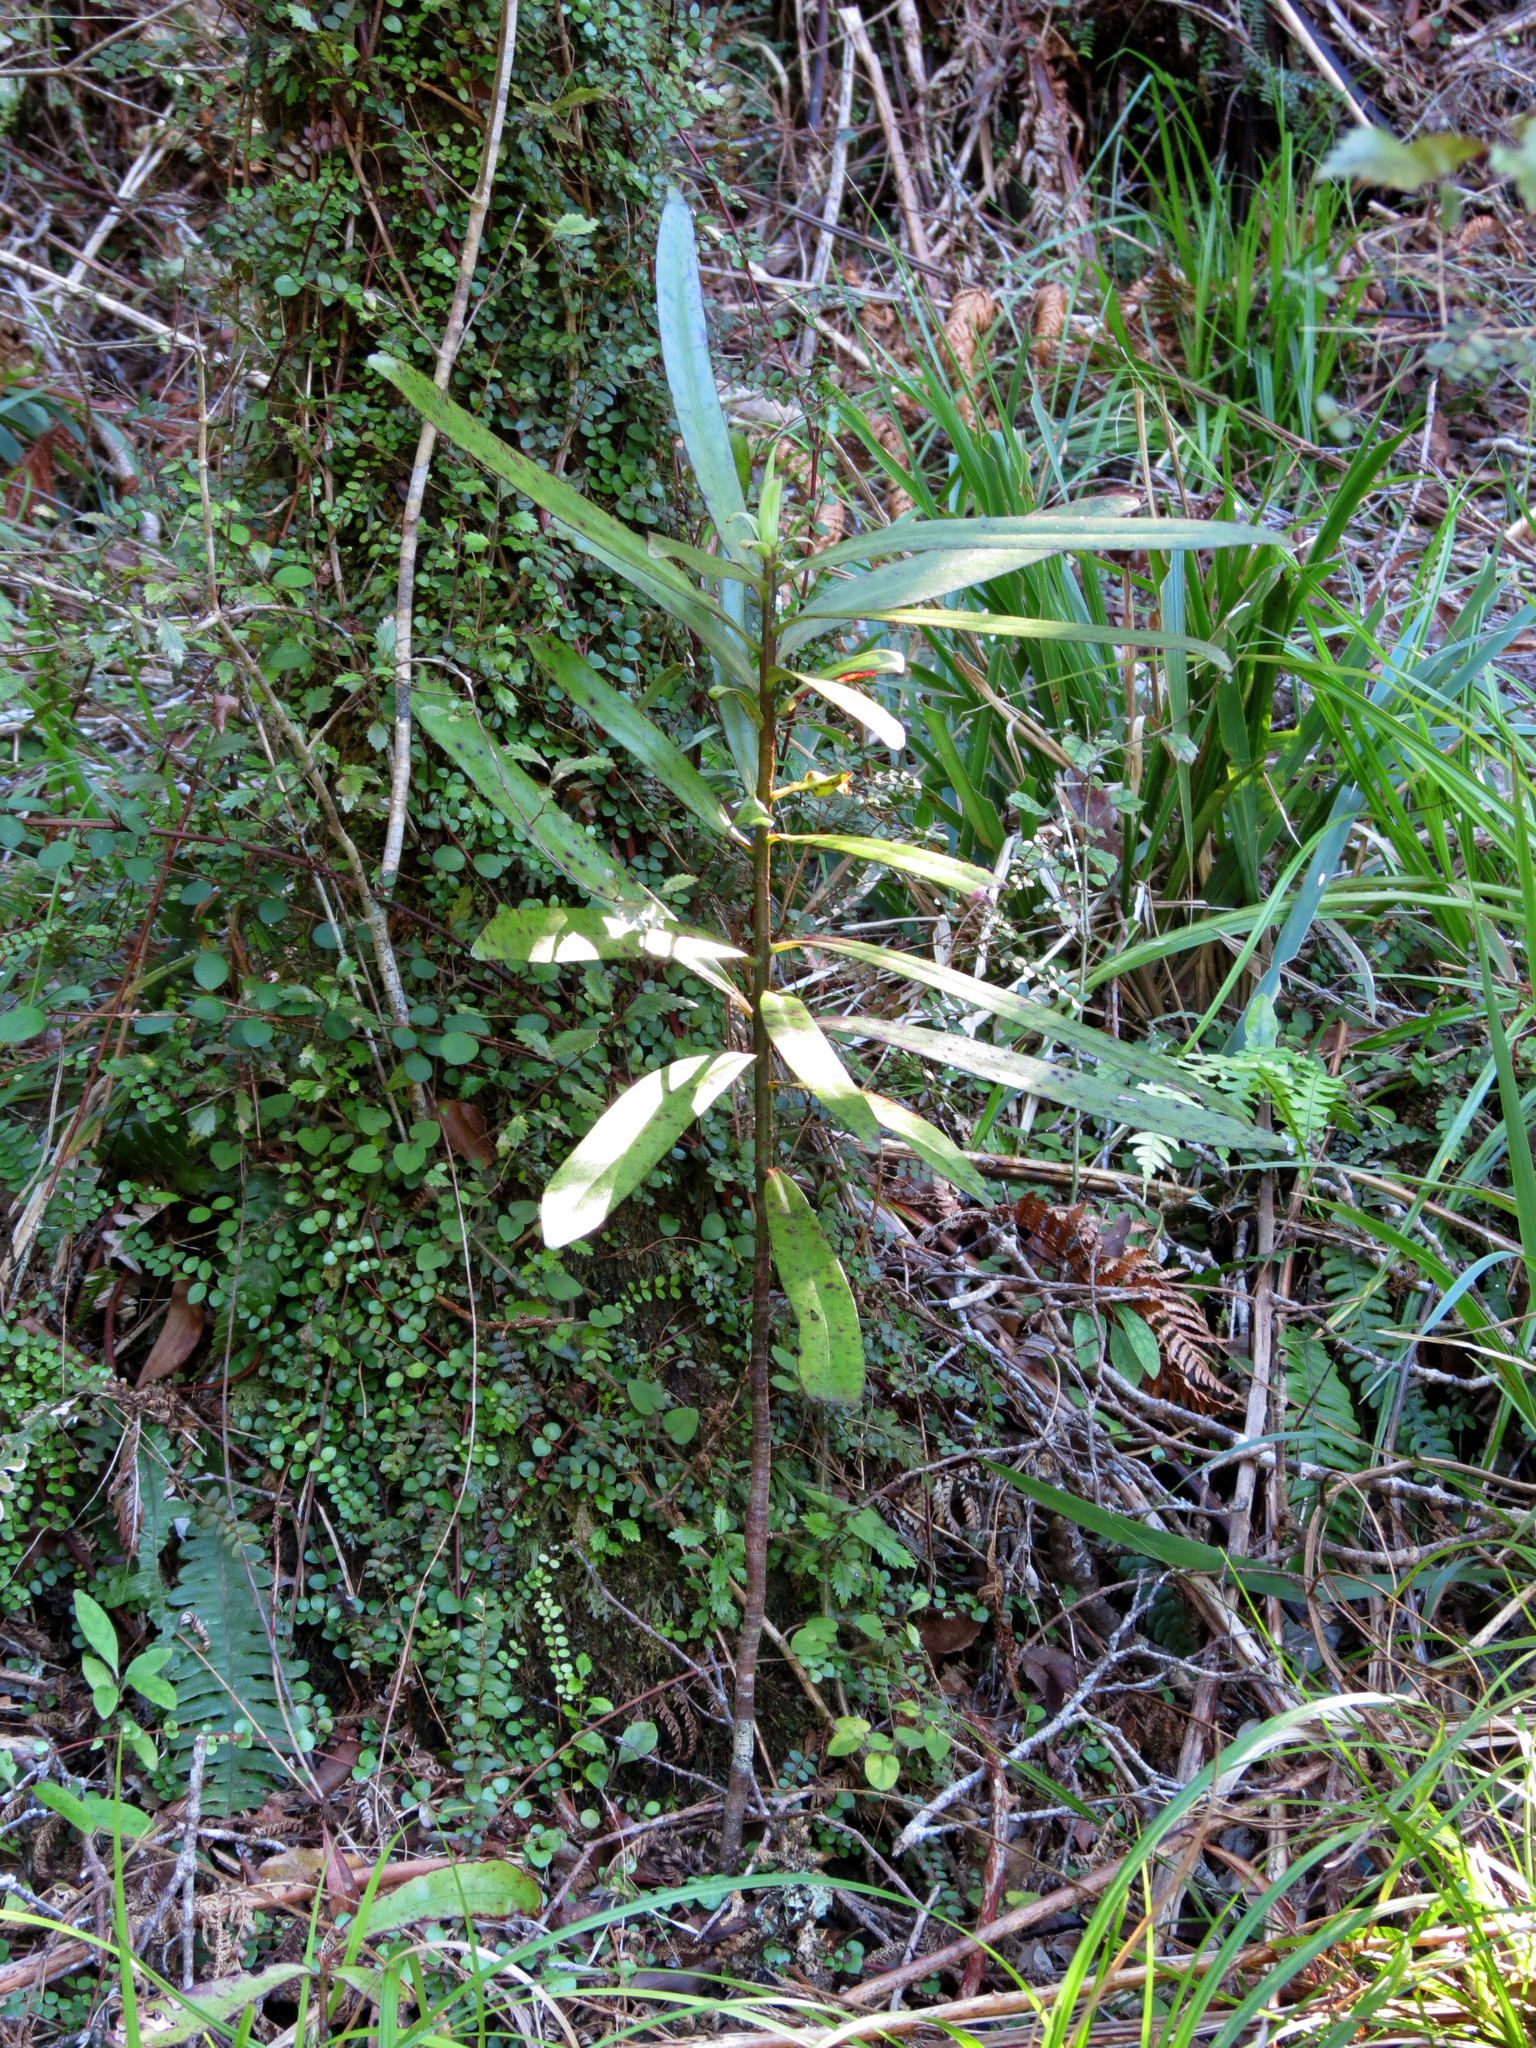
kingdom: Plantae
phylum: Tracheophyta
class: Magnoliopsida
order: Ericales
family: Primulaceae
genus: Myrsine
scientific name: Myrsine salicina
